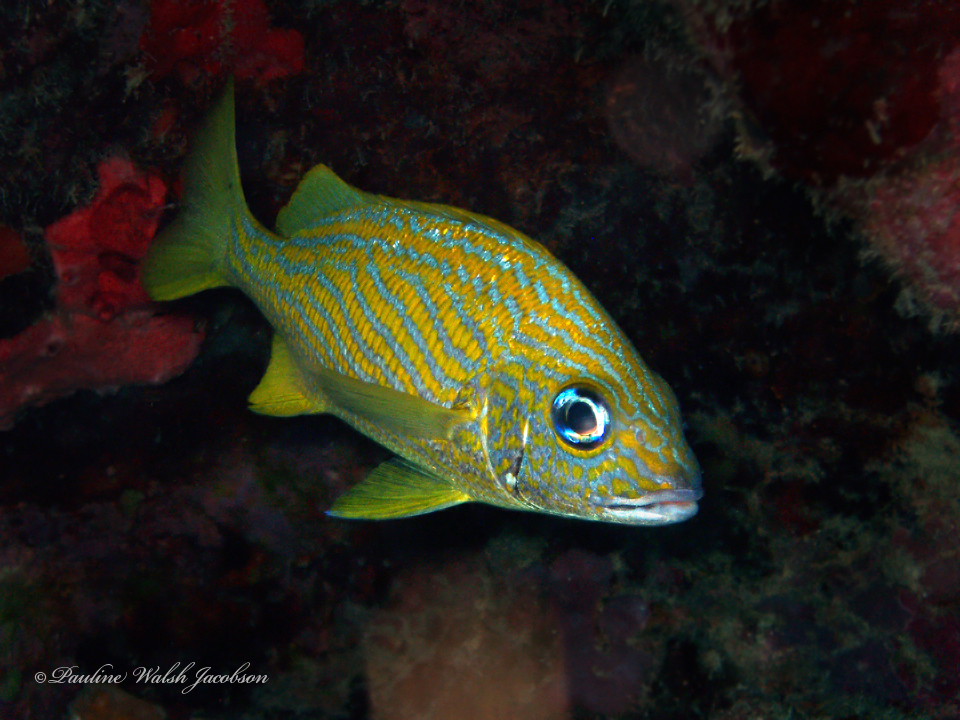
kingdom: Animalia
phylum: Chordata
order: Perciformes
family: Haemulidae
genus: Haemulon
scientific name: Haemulon flavolineatum
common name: French grunt
